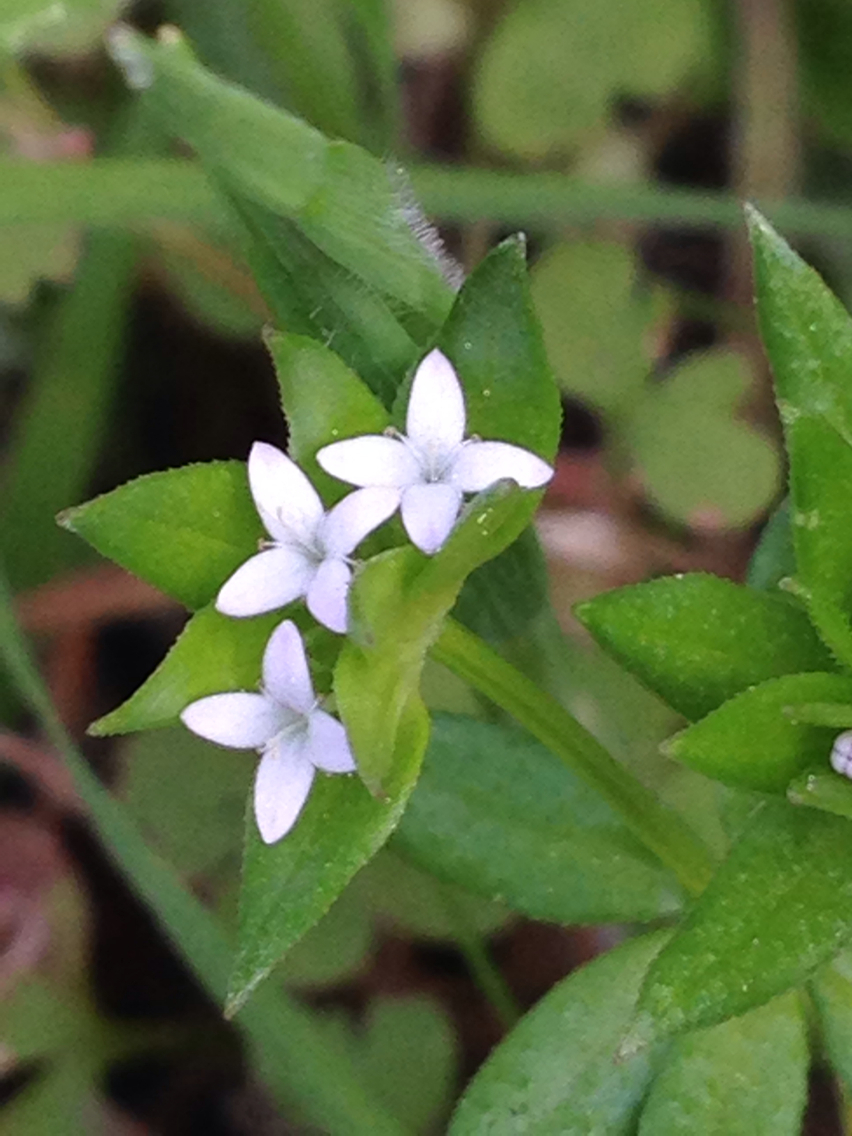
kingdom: Plantae
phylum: Tracheophyta
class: Magnoliopsida
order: Gentianales
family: Rubiaceae
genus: Sherardia
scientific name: Sherardia arvensis
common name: Field madder
